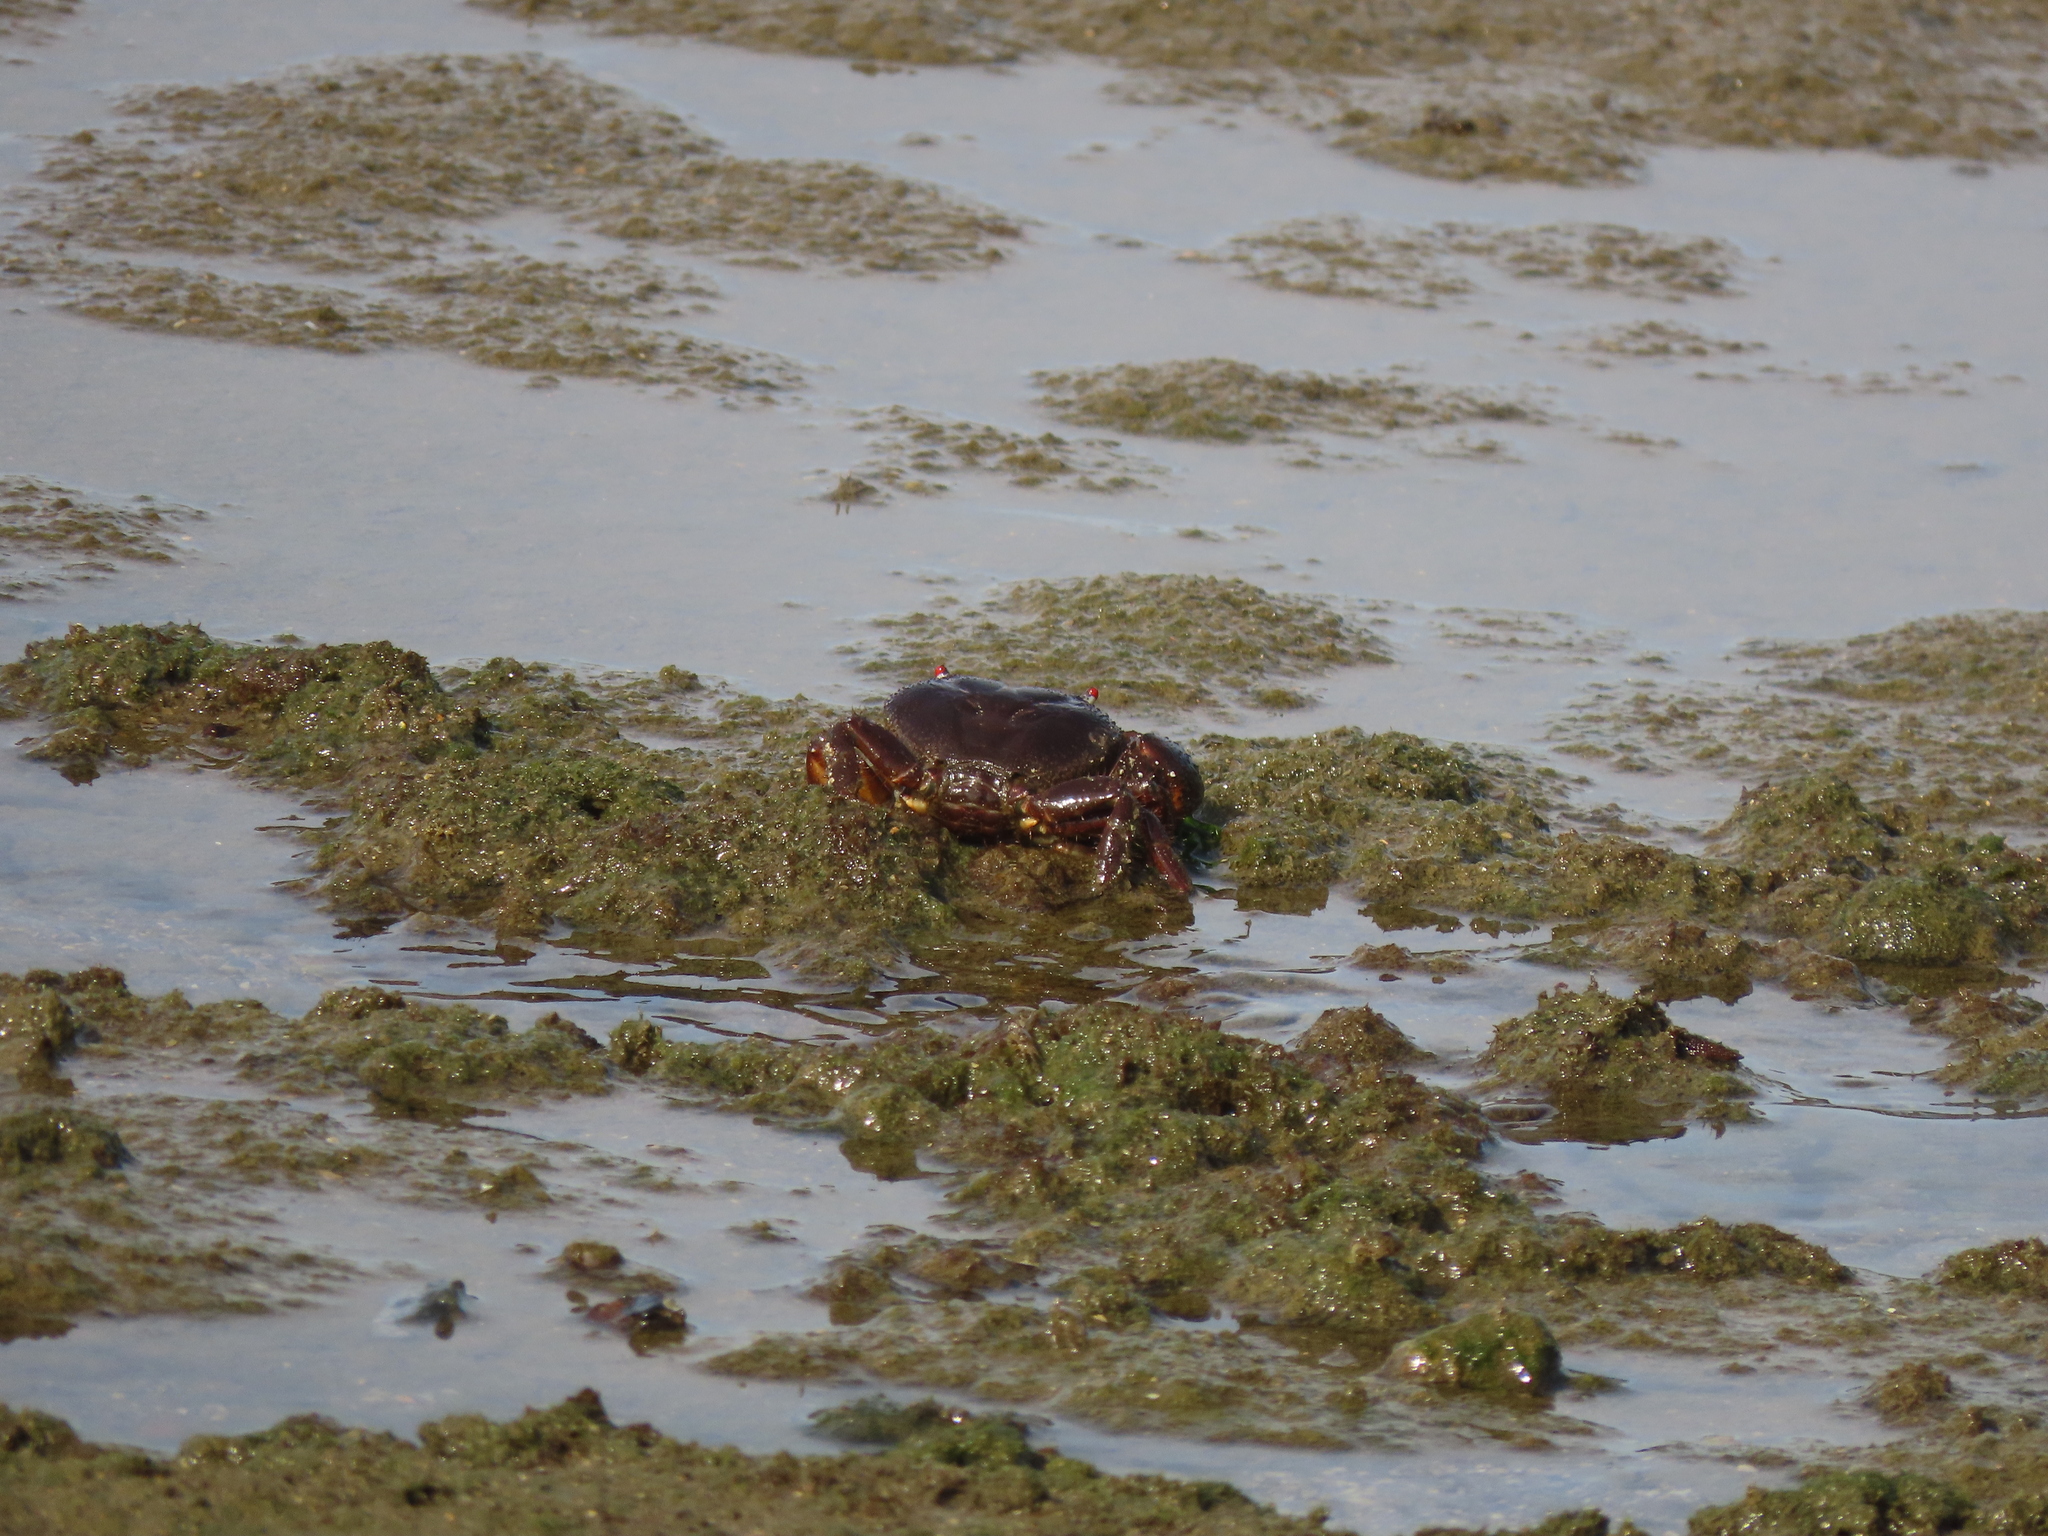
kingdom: Animalia
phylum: Arthropoda
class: Malacostraca
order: Decapoda
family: Eriphiidae
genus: Eriphia
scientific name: Eriphia ferox
